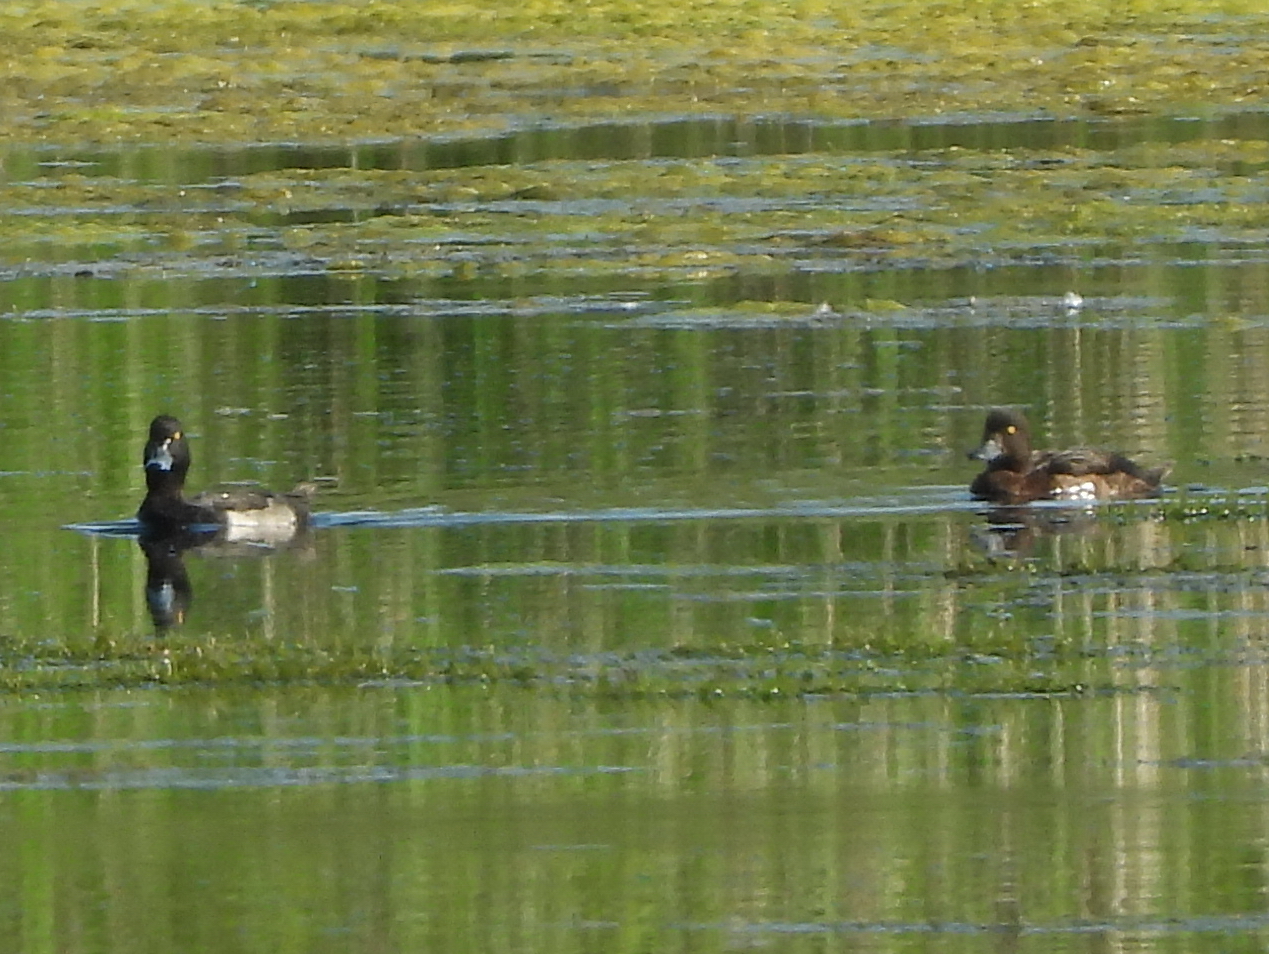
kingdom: Animalia
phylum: Chordata
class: Aves
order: Anseriformes
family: Anatidae
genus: Aythya
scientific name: Aythya fuligula
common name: Tufted duck
